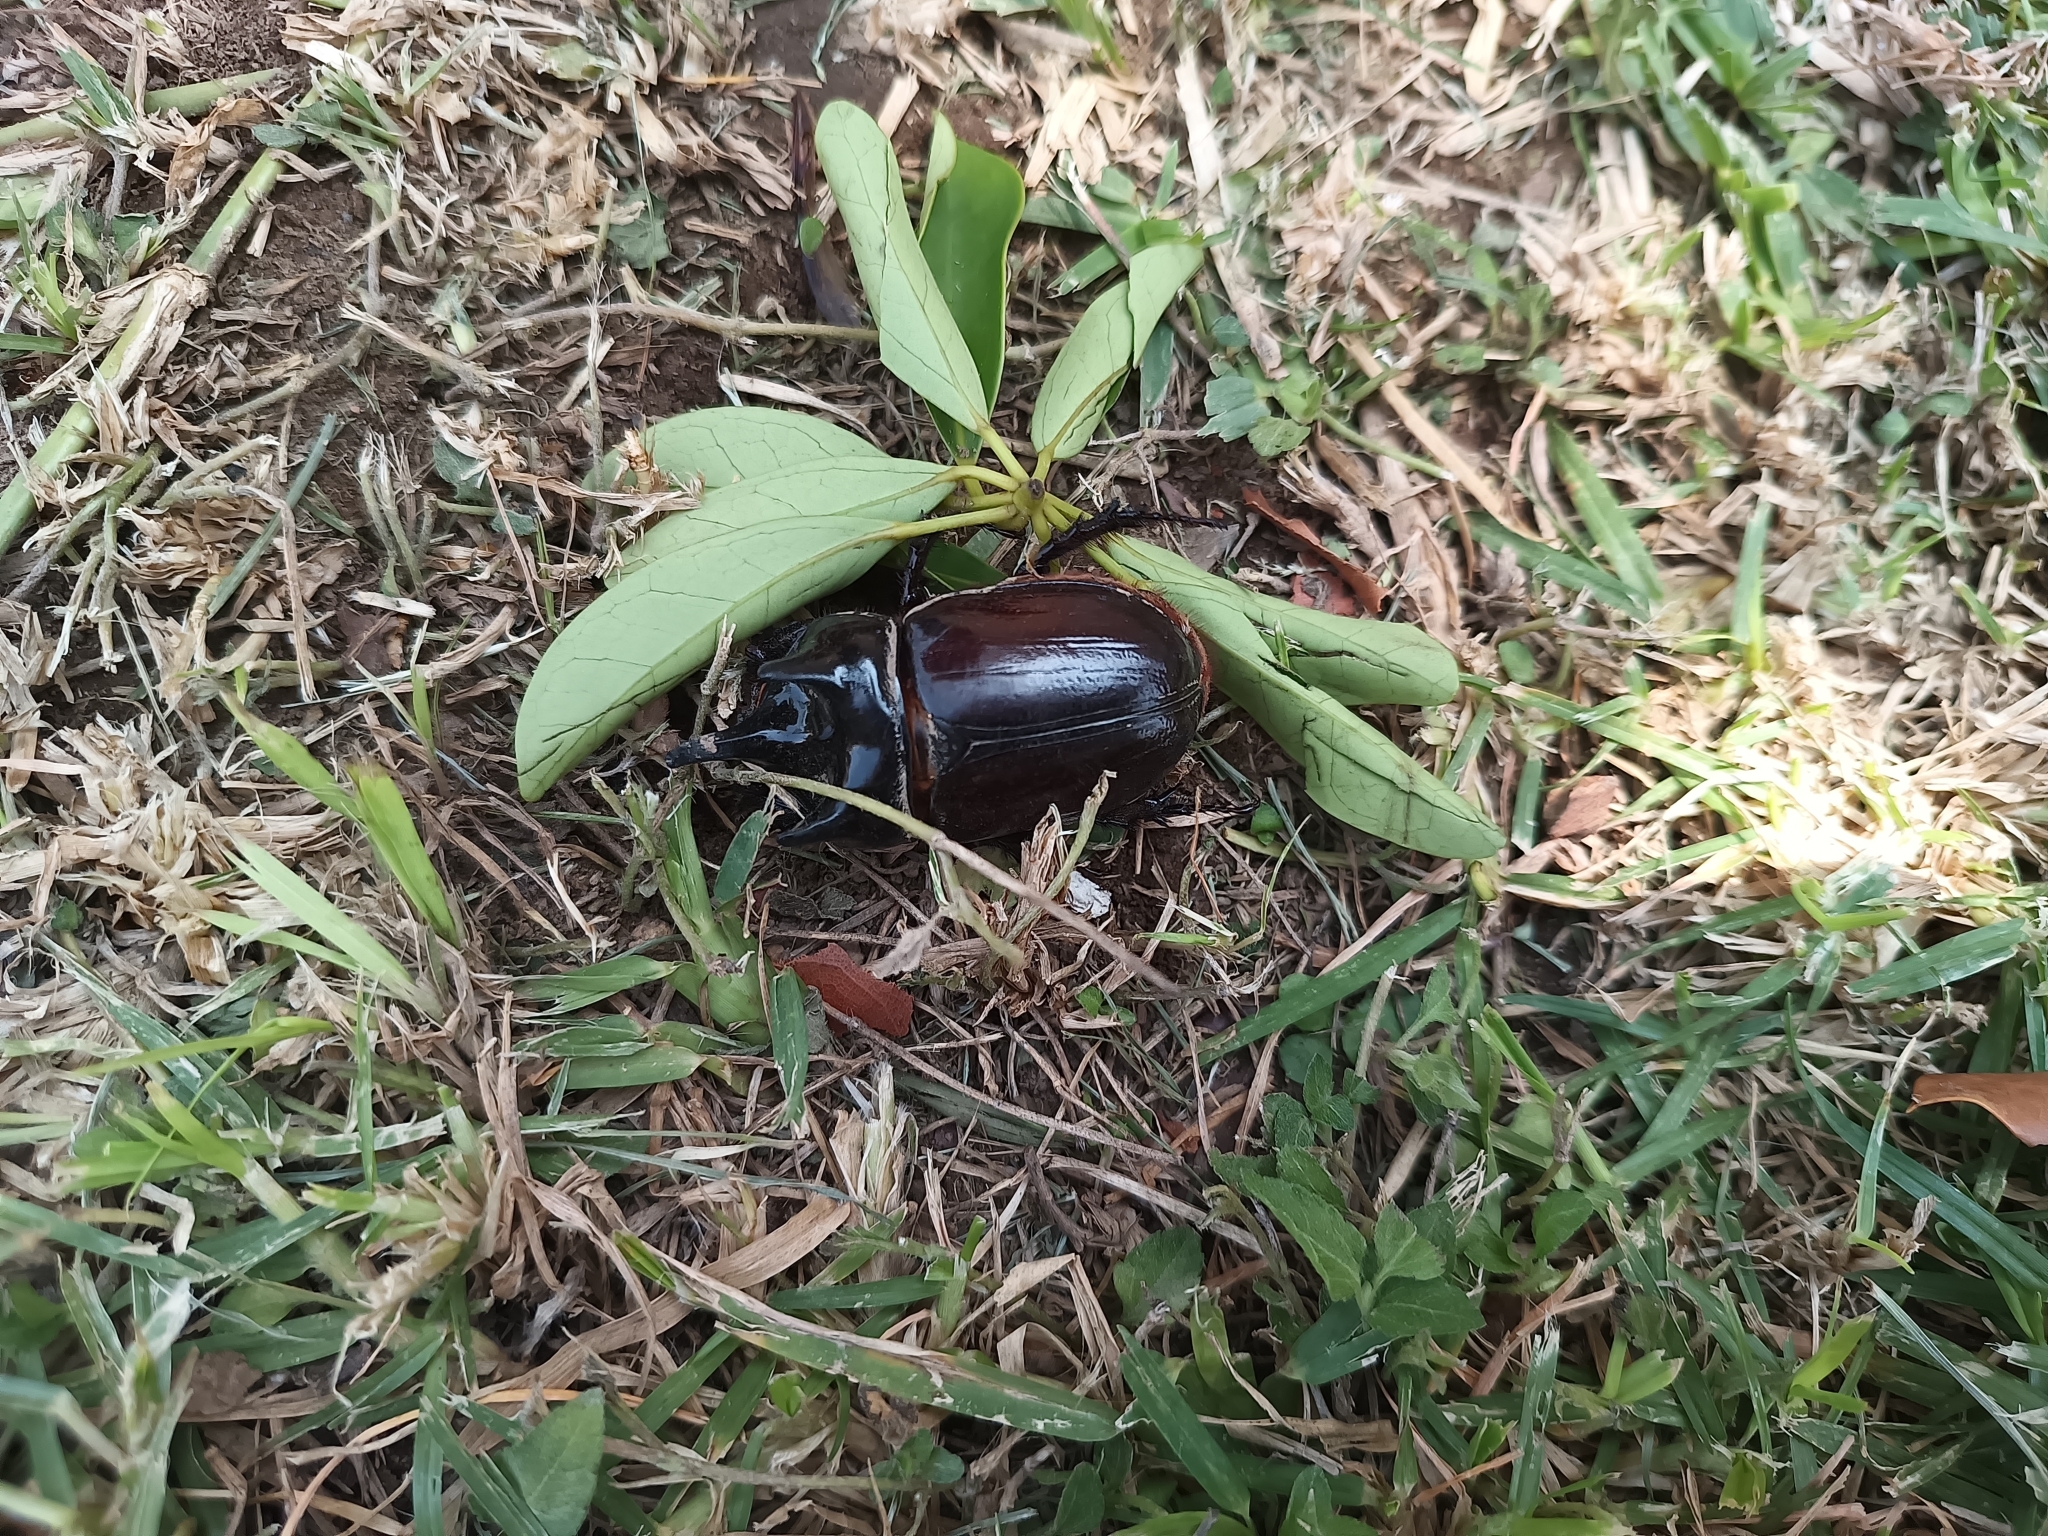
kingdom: Animalia
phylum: Arthropoda
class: Insecta
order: Coleoptera
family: Scarabaeidae
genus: Strategus
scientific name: Strategus aloeus
